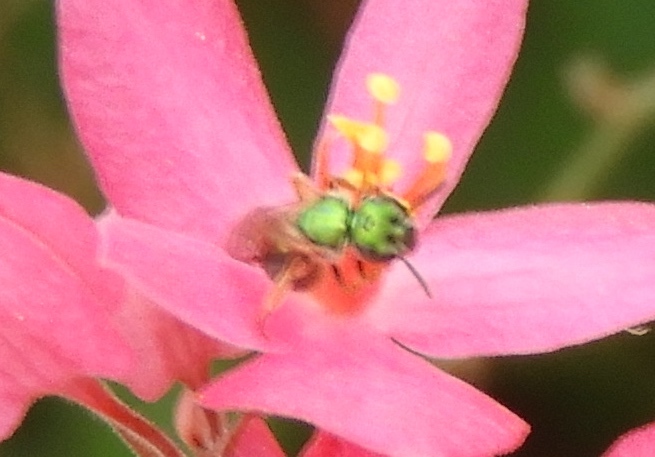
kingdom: Animalia
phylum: Arthropoda
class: Insecta
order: Hymenoptera
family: Halictidae
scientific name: Halictidae
